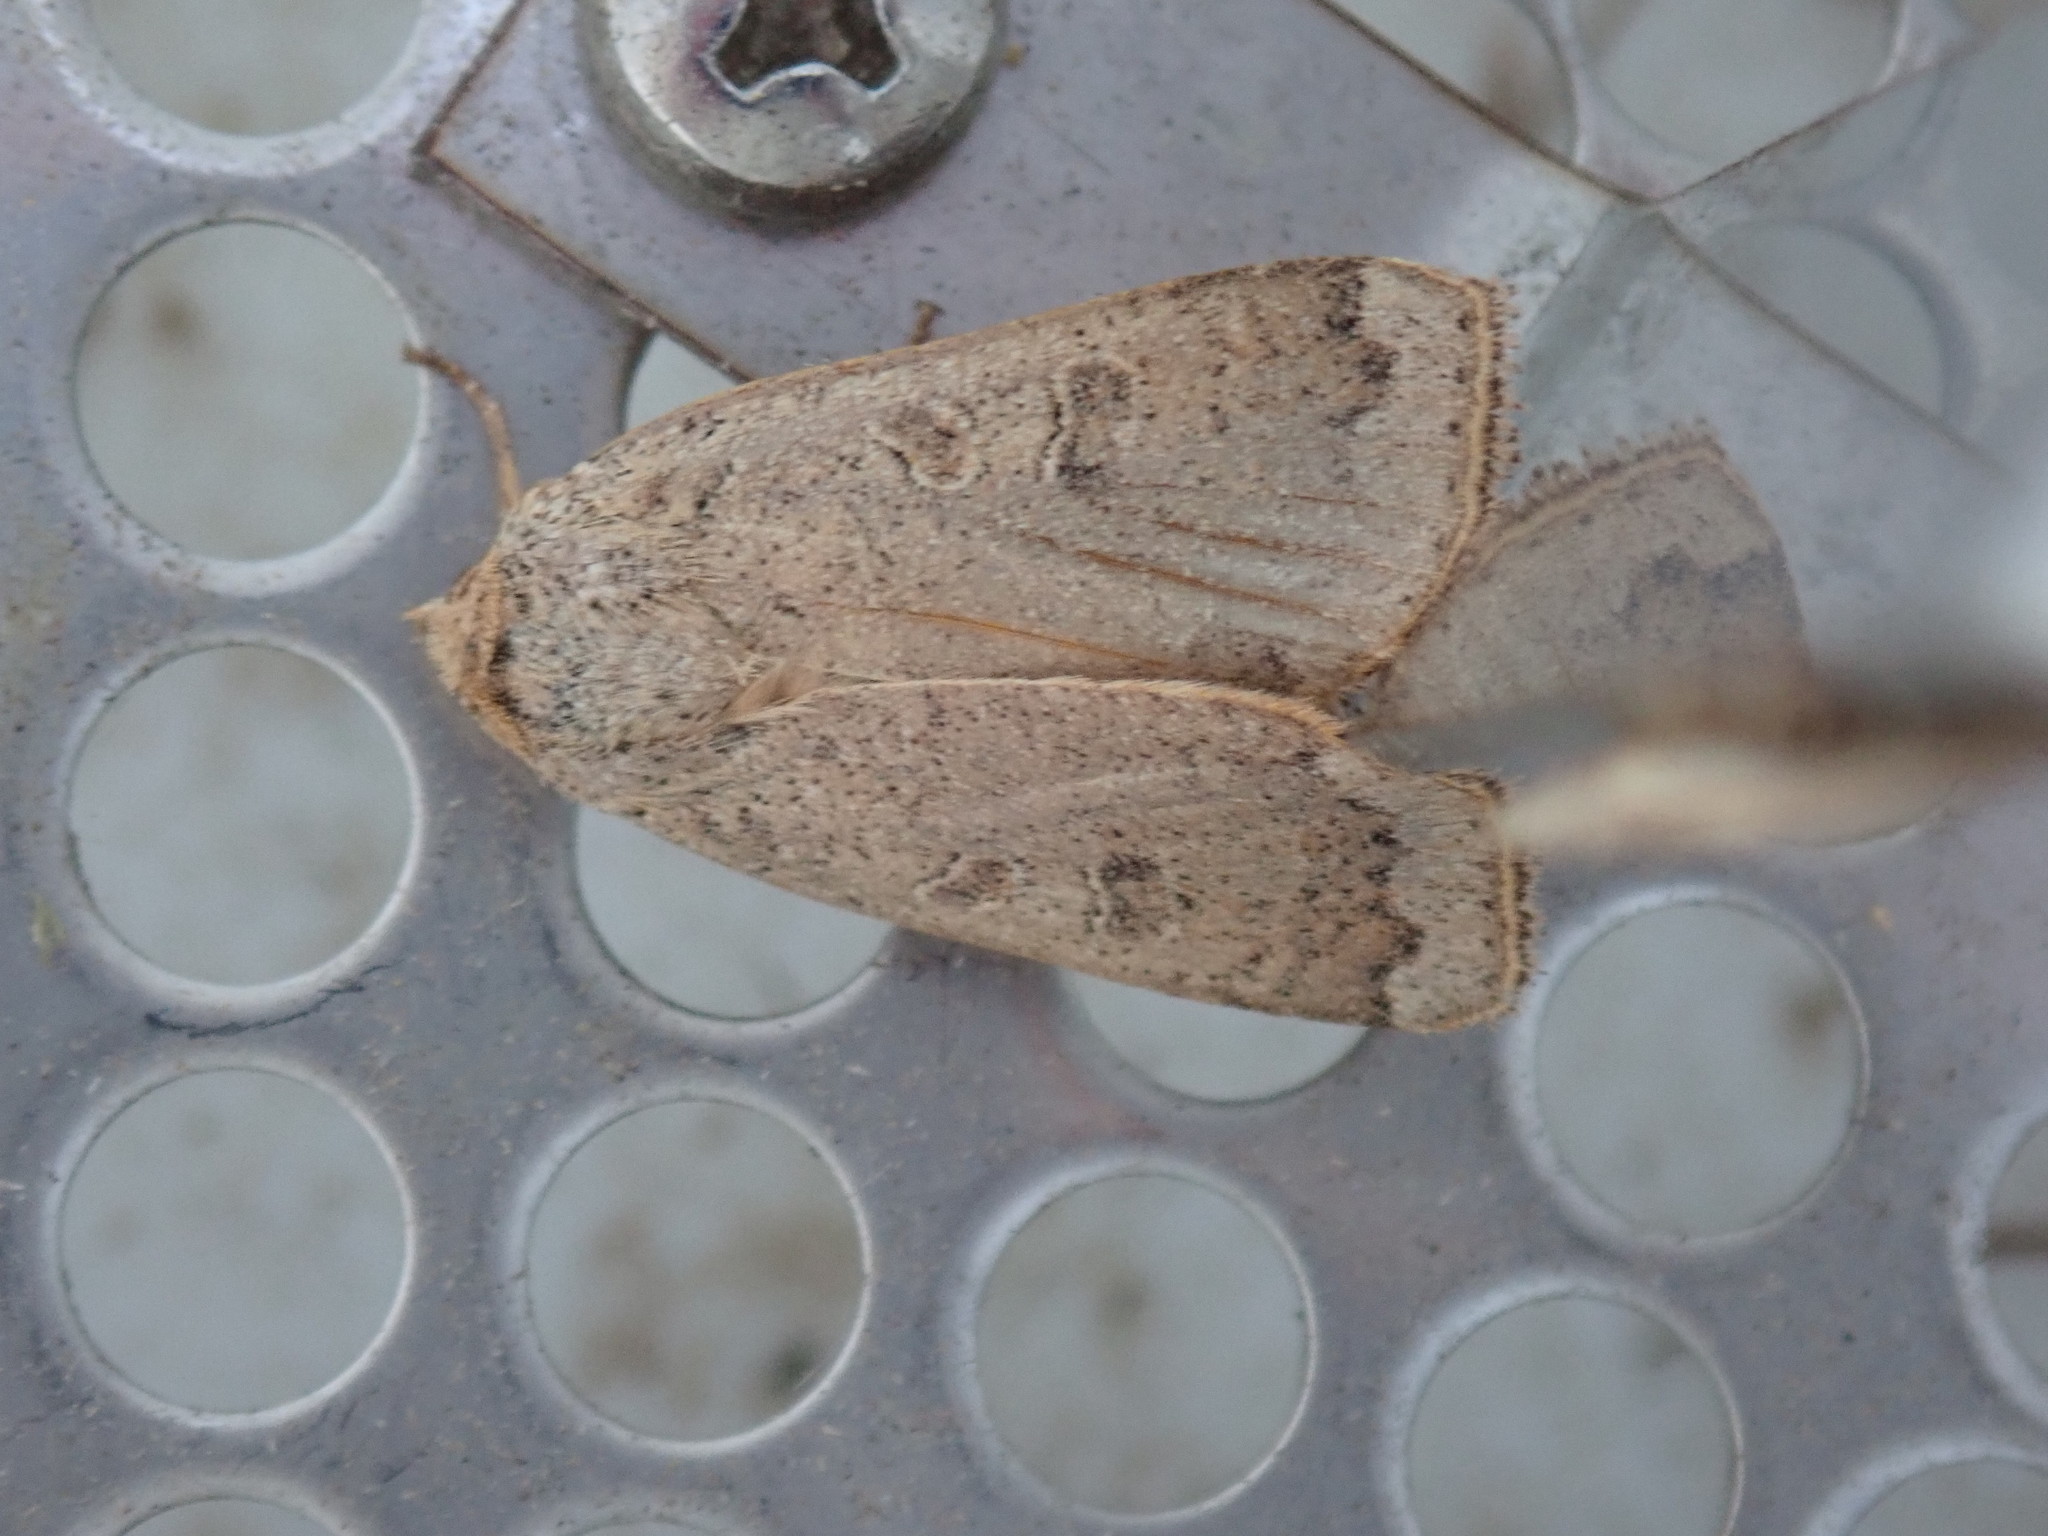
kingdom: Animalia
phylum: Arthropoda
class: Insecta
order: Lepidoptera
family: Noctuidae
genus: Abagrotis
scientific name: Abagrotis alternata
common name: Greater red dart
